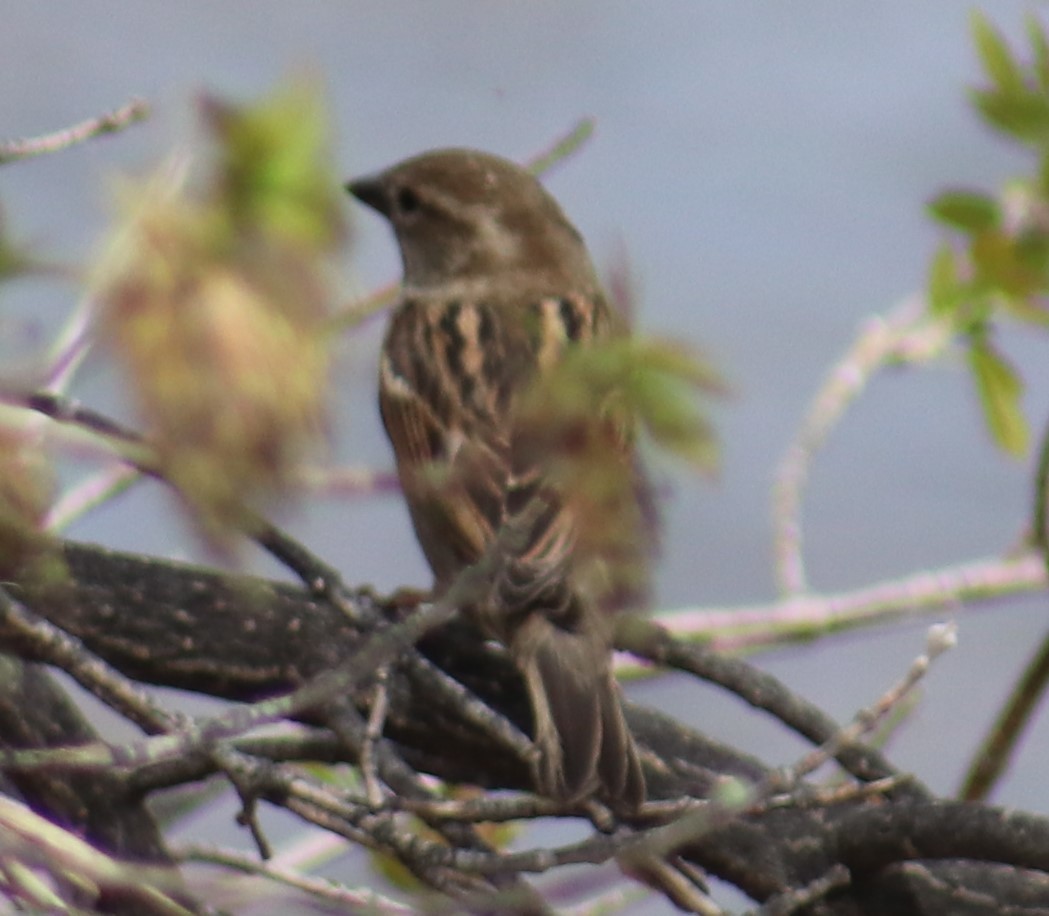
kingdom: Animalia
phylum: Chordata
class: Aves
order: Passeriformes
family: Passeridae
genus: Passer
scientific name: Passer domesticus
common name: House sparrow
